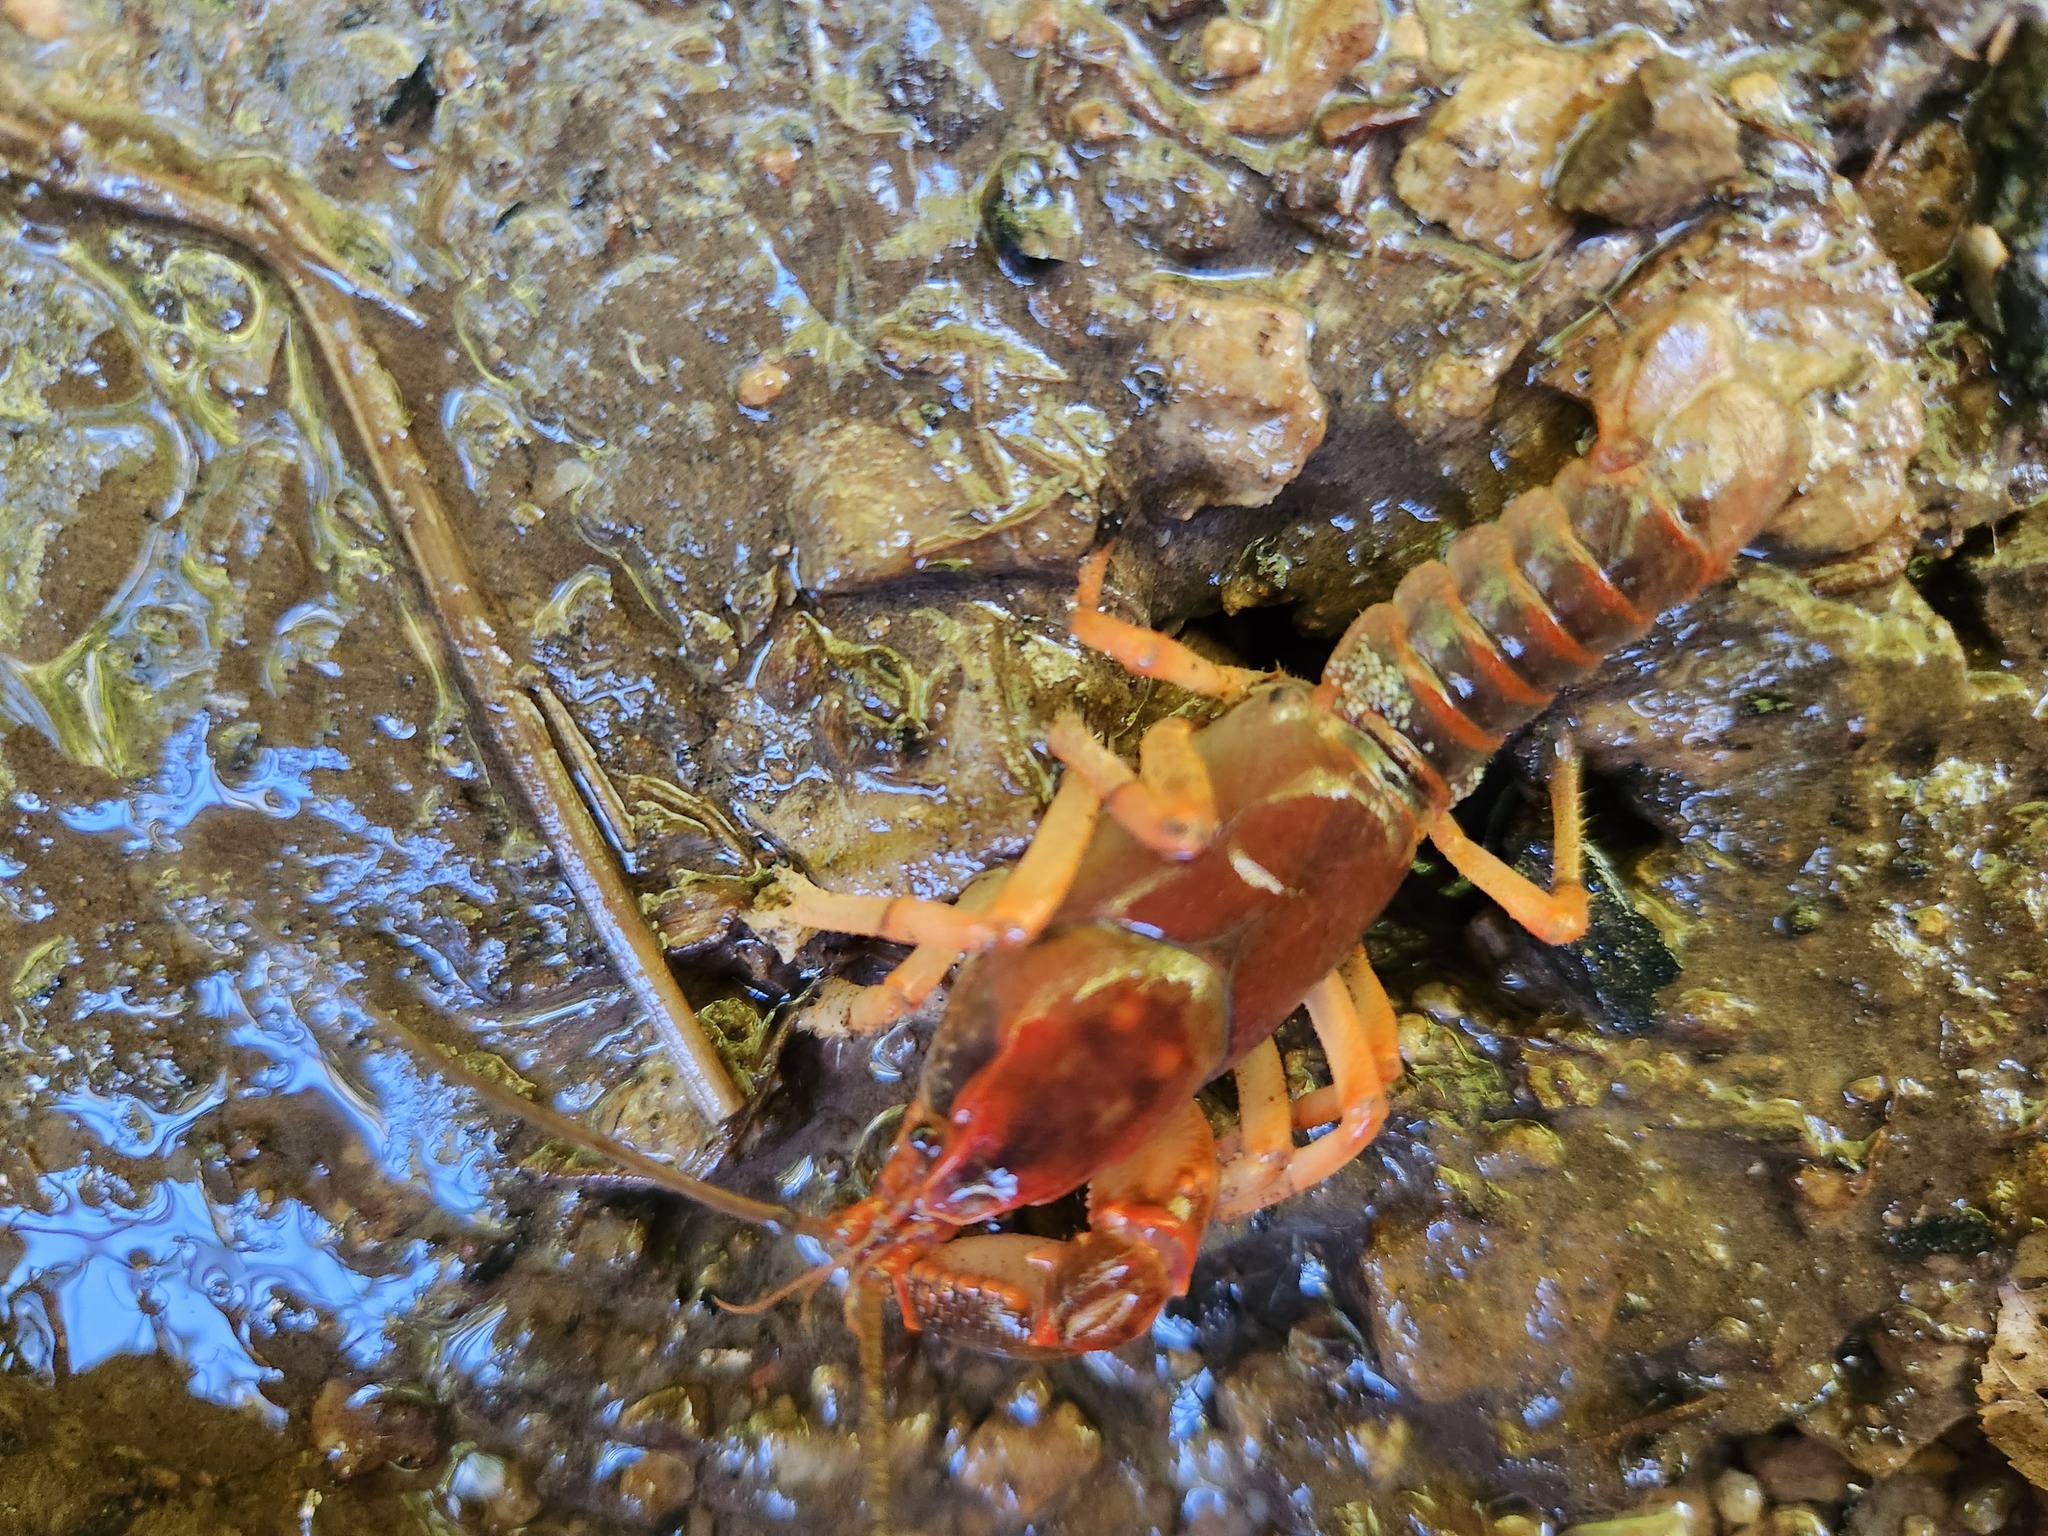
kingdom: Animalia
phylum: Arthropoda
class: Malacostraca
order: Decapoda
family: Cambaridae
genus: Cambarus
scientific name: Cambarus gentryi
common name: Linear cobalt crayfish
